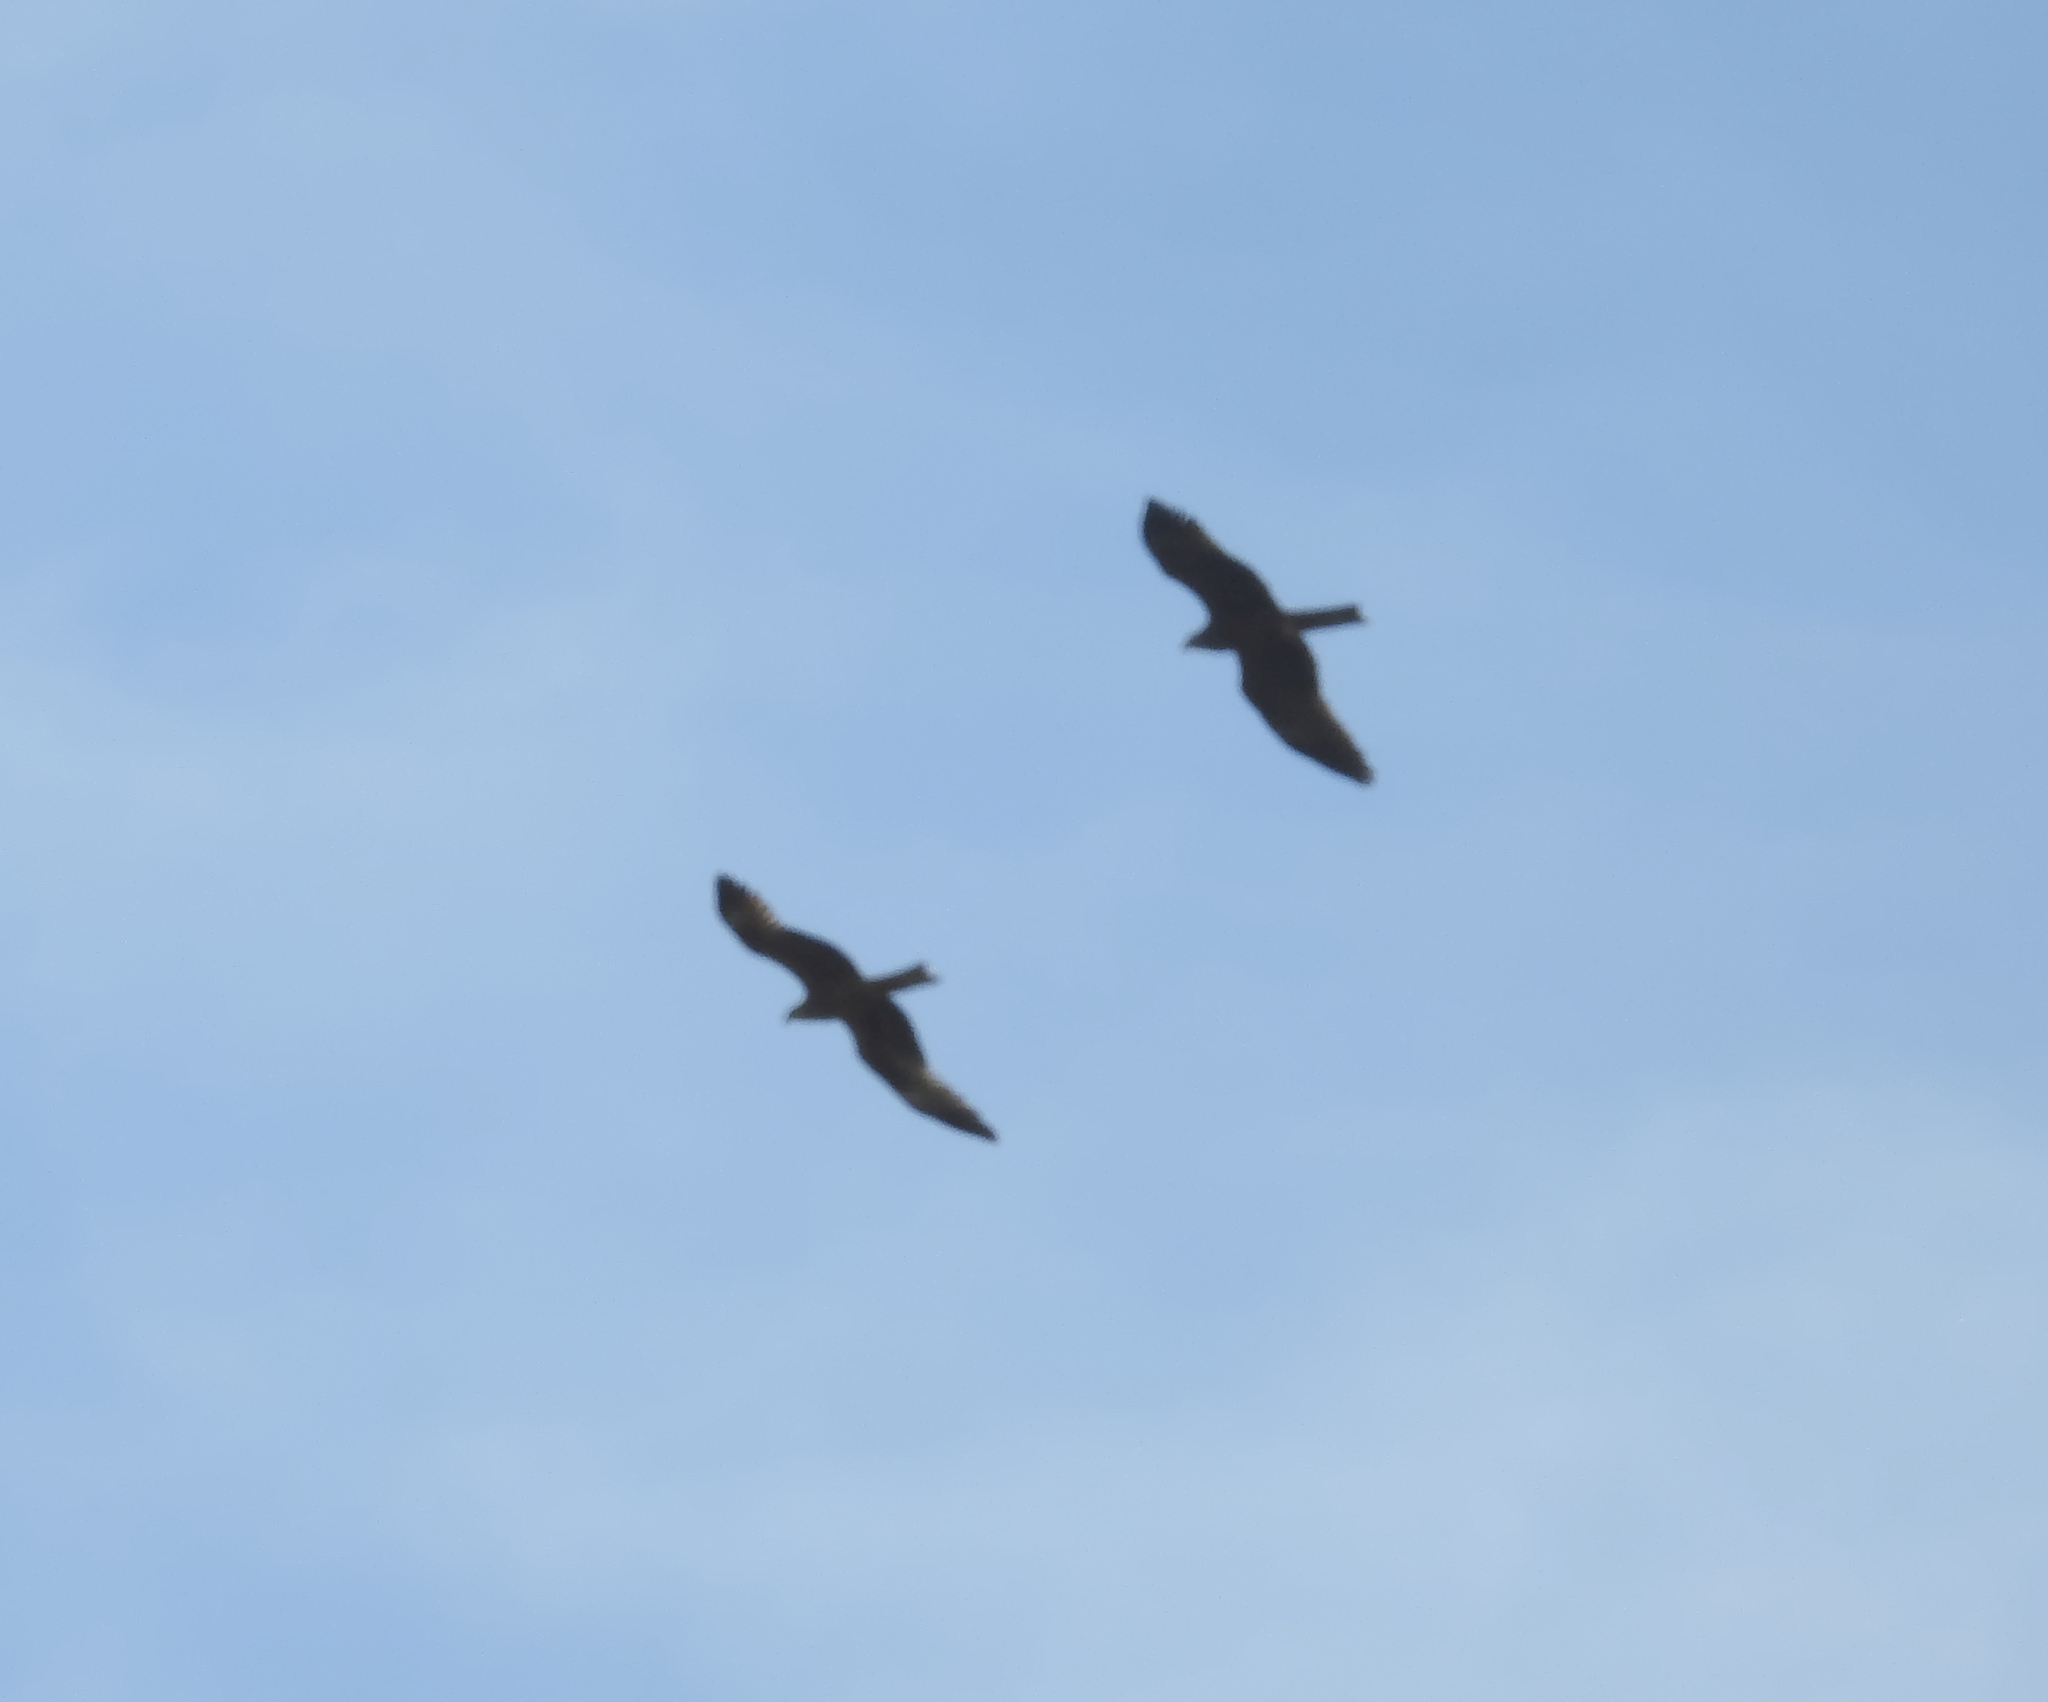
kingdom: Animalia
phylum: Chordata
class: Aves
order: Accipitriformes
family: Accipitridae
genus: Milvus
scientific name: Milvus migrans
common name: Black kite
